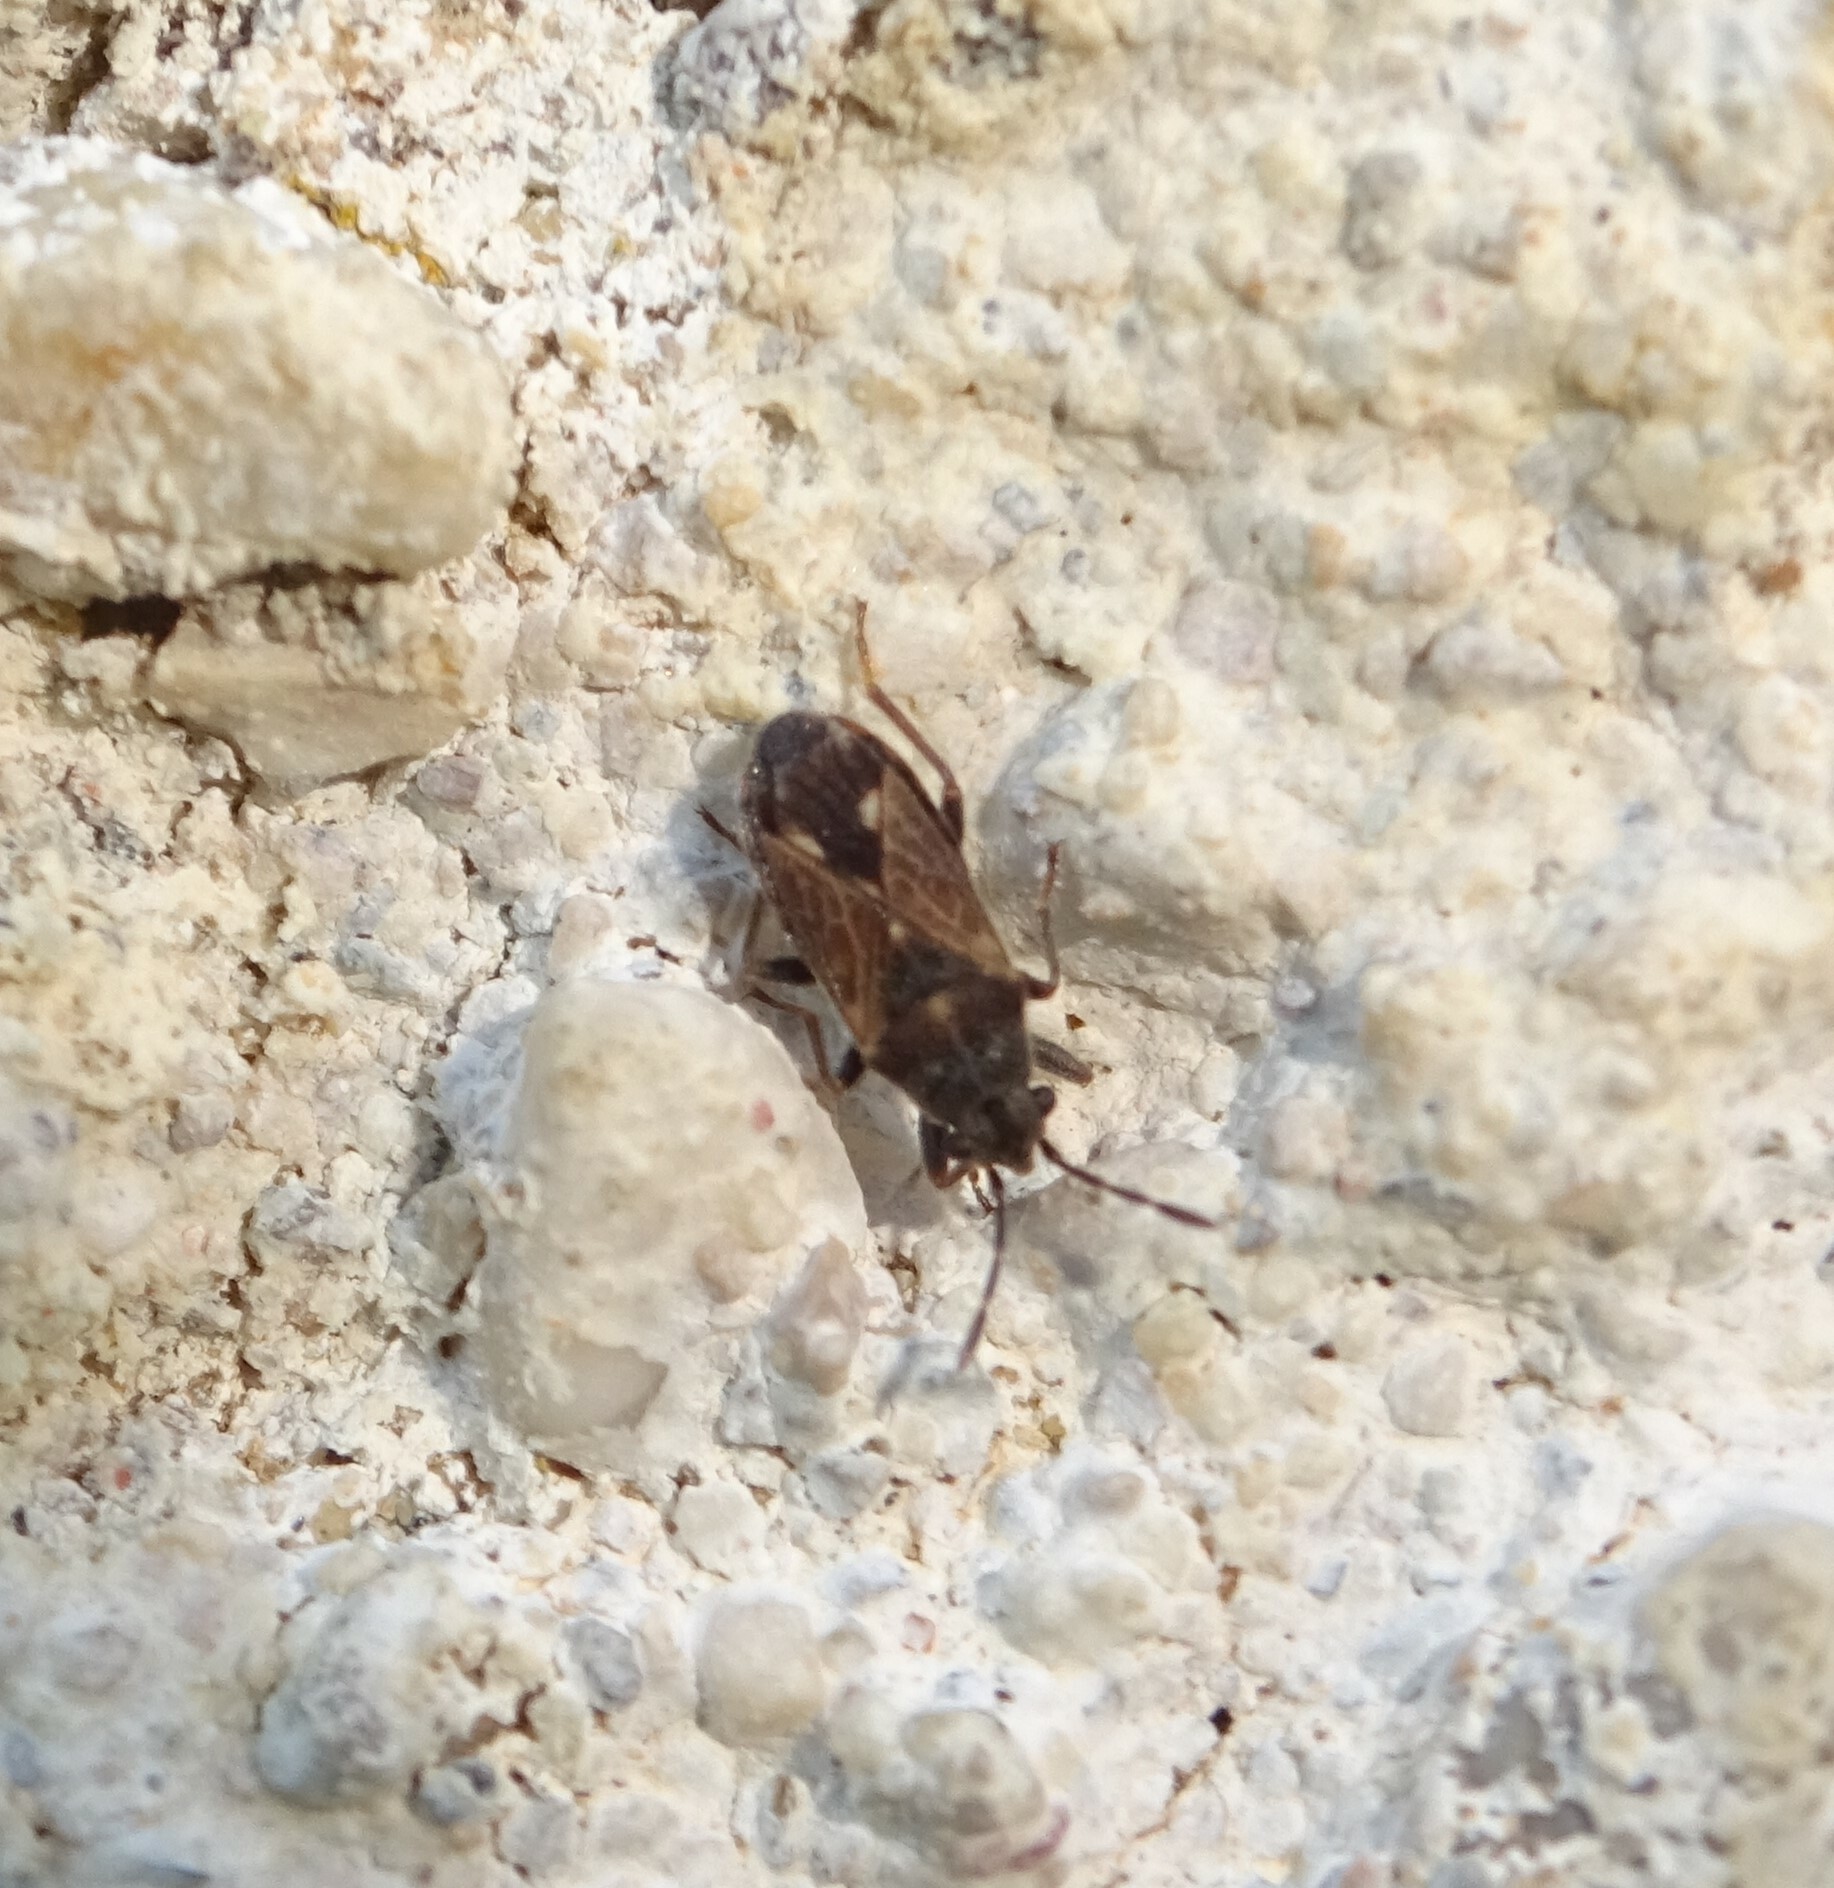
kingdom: Animalia
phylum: Arthropoda
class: Insecta
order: Hemiptera
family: Lygaeidae
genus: Lygaeosoma
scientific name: Lygaeosoma sardeum
